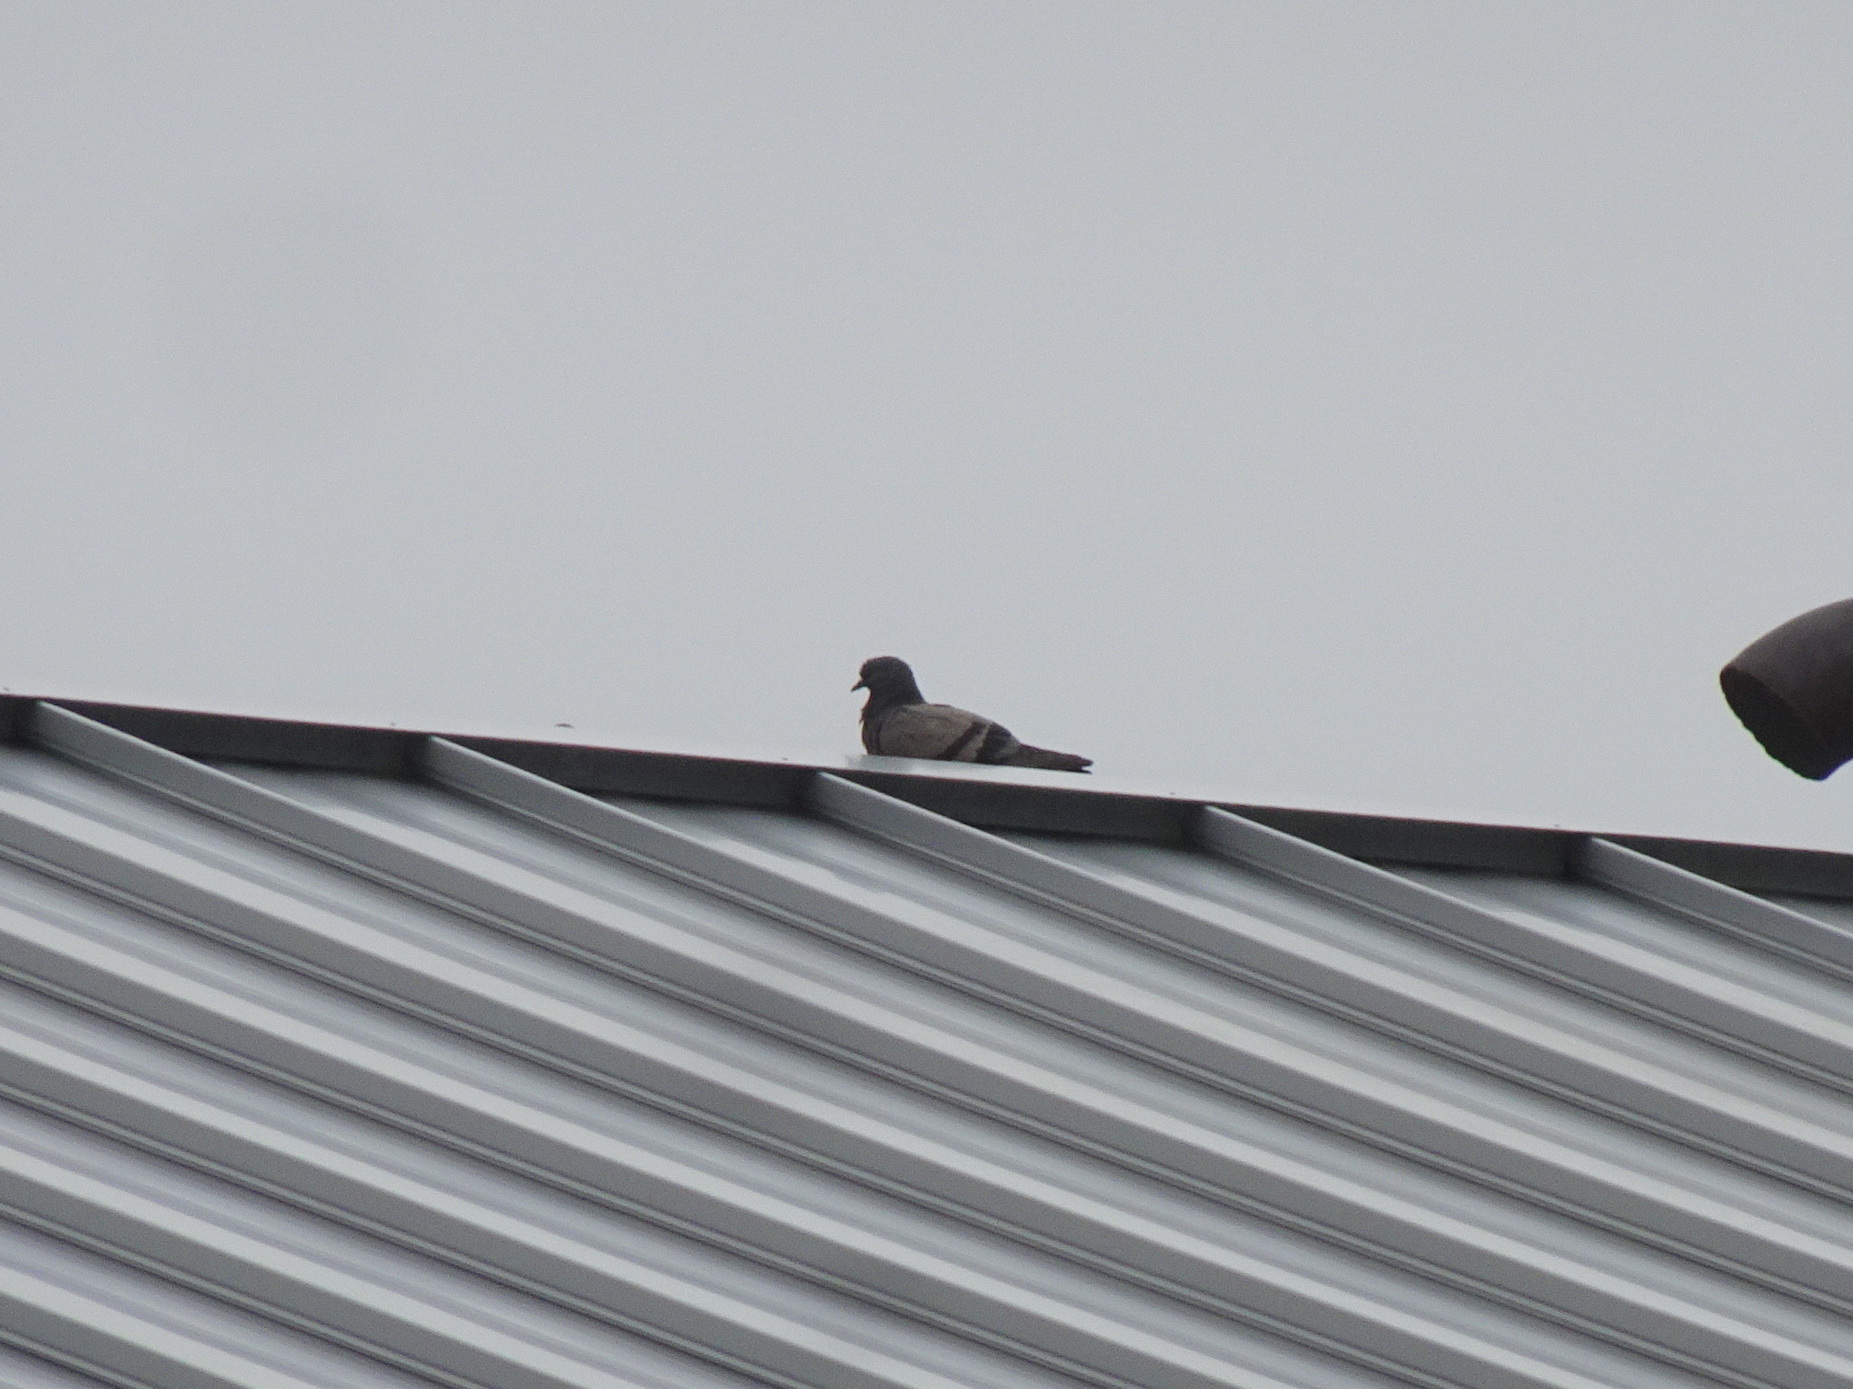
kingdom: Animalia
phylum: Chordata
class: Aves
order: Columbiformes
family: Columbidae
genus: Columba
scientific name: Columba livia
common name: Rock pigeon
